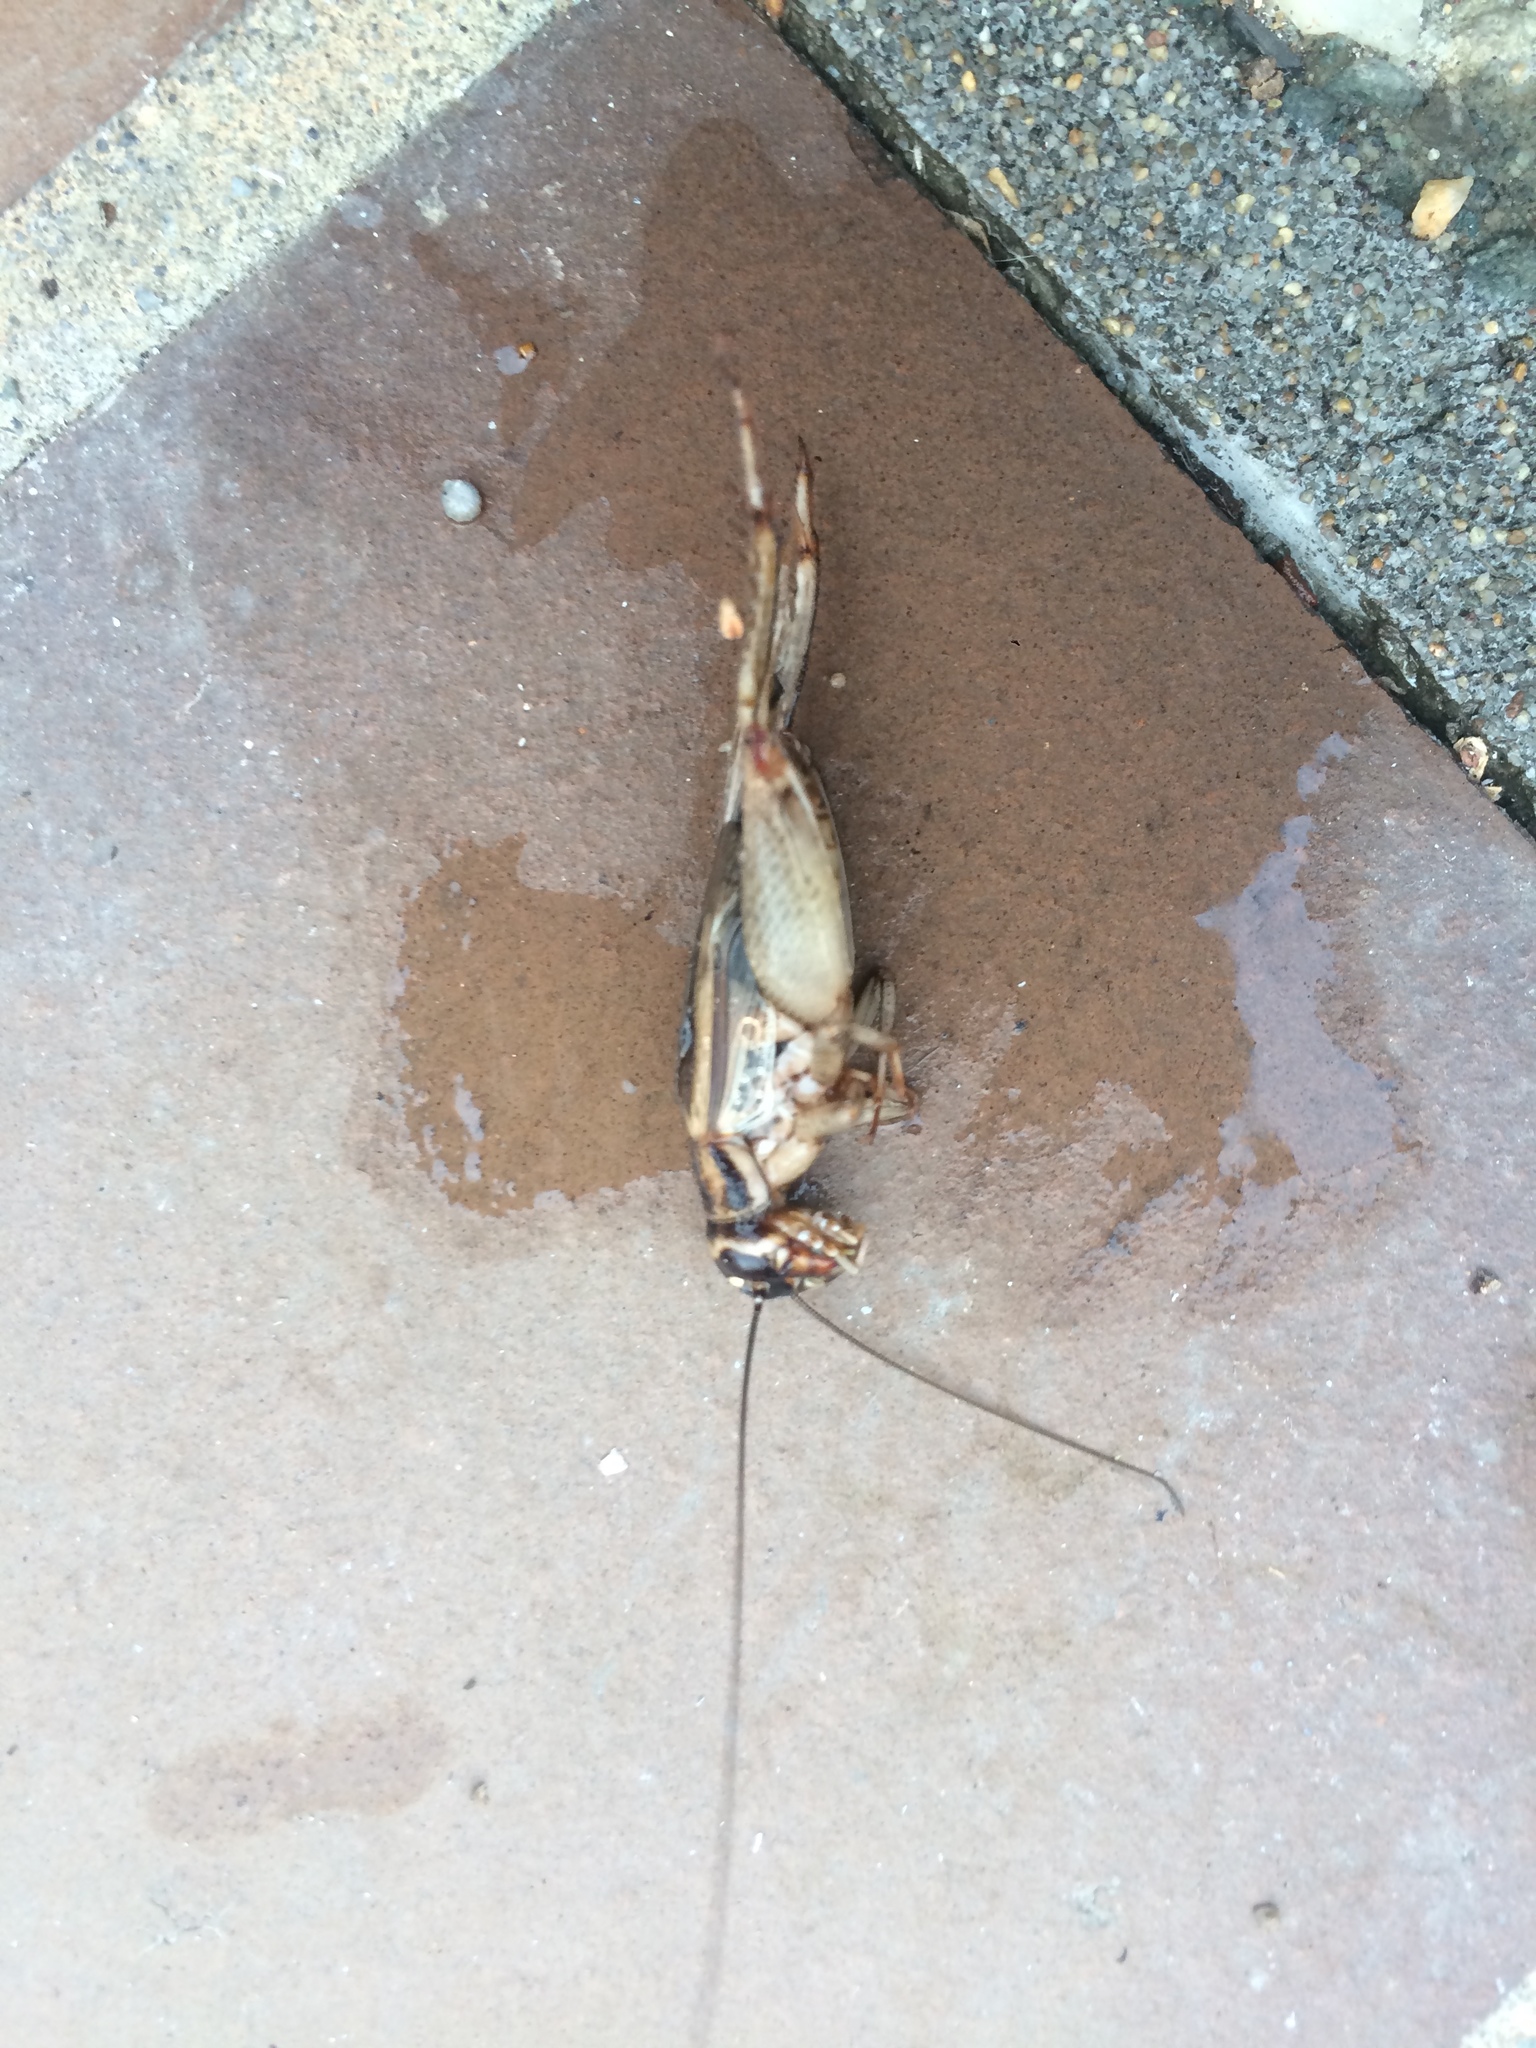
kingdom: Animalia
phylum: Arthropoda
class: Insecta
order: Orthoptera
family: Gryllidae
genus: Acheta
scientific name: Acheta domesticus
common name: House cricket
